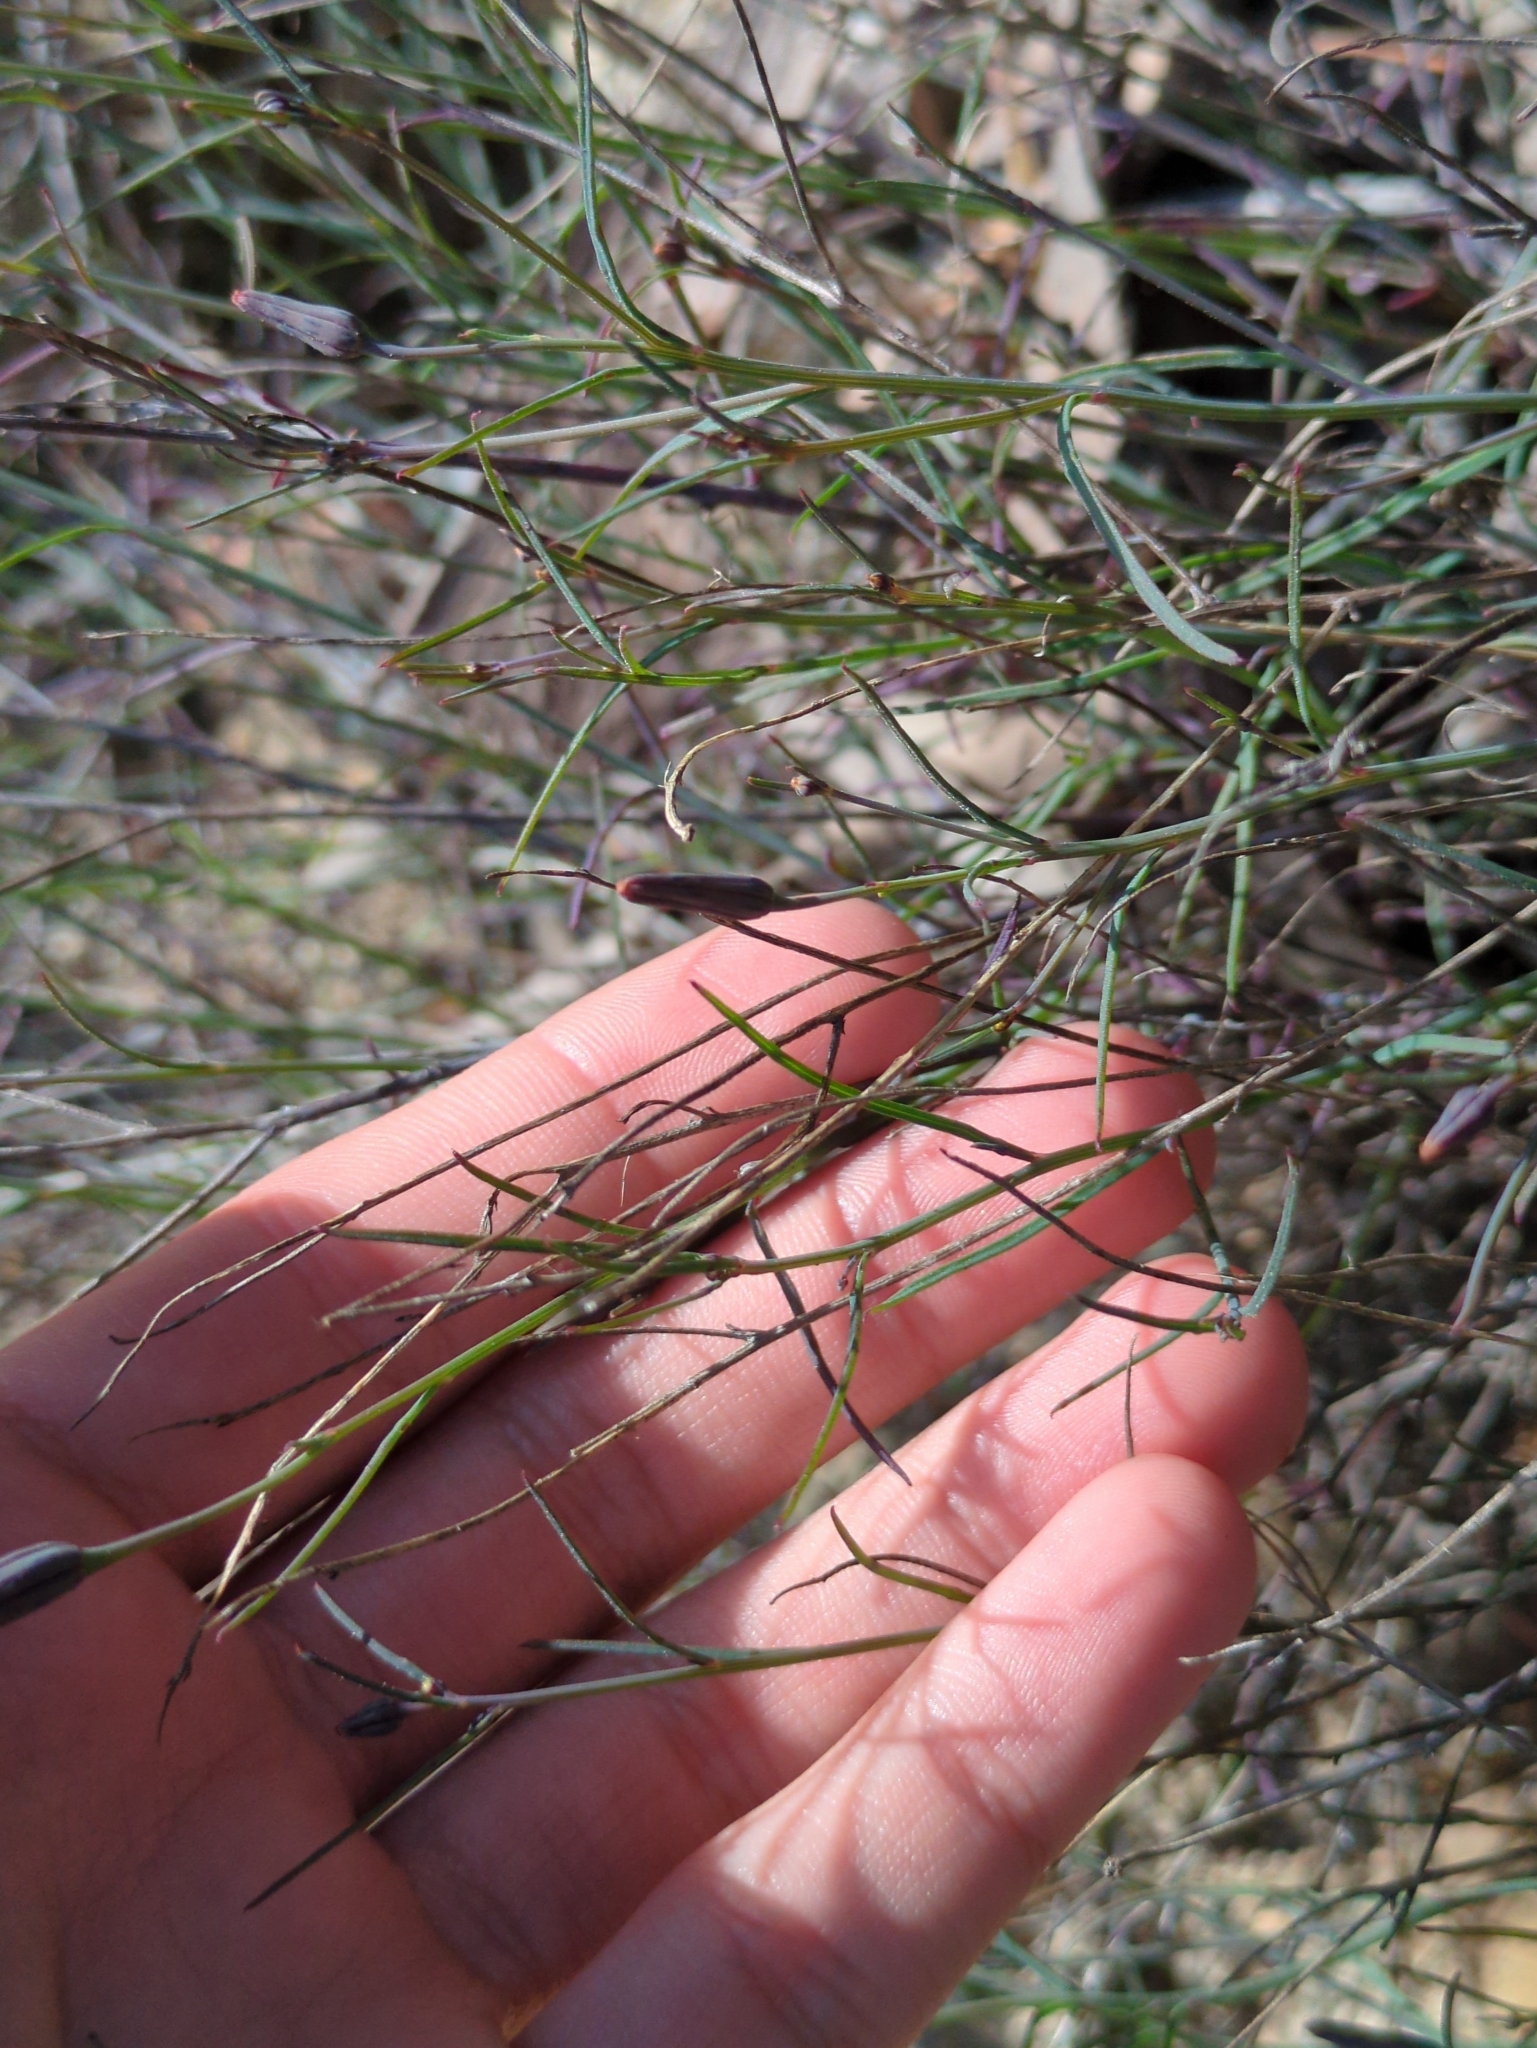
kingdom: Plantae
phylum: Tracheophyta
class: Magnoliopsida
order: Asterales
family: Asteraceae
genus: Porophyllum
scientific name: Porophyllum gracile
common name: Odora
